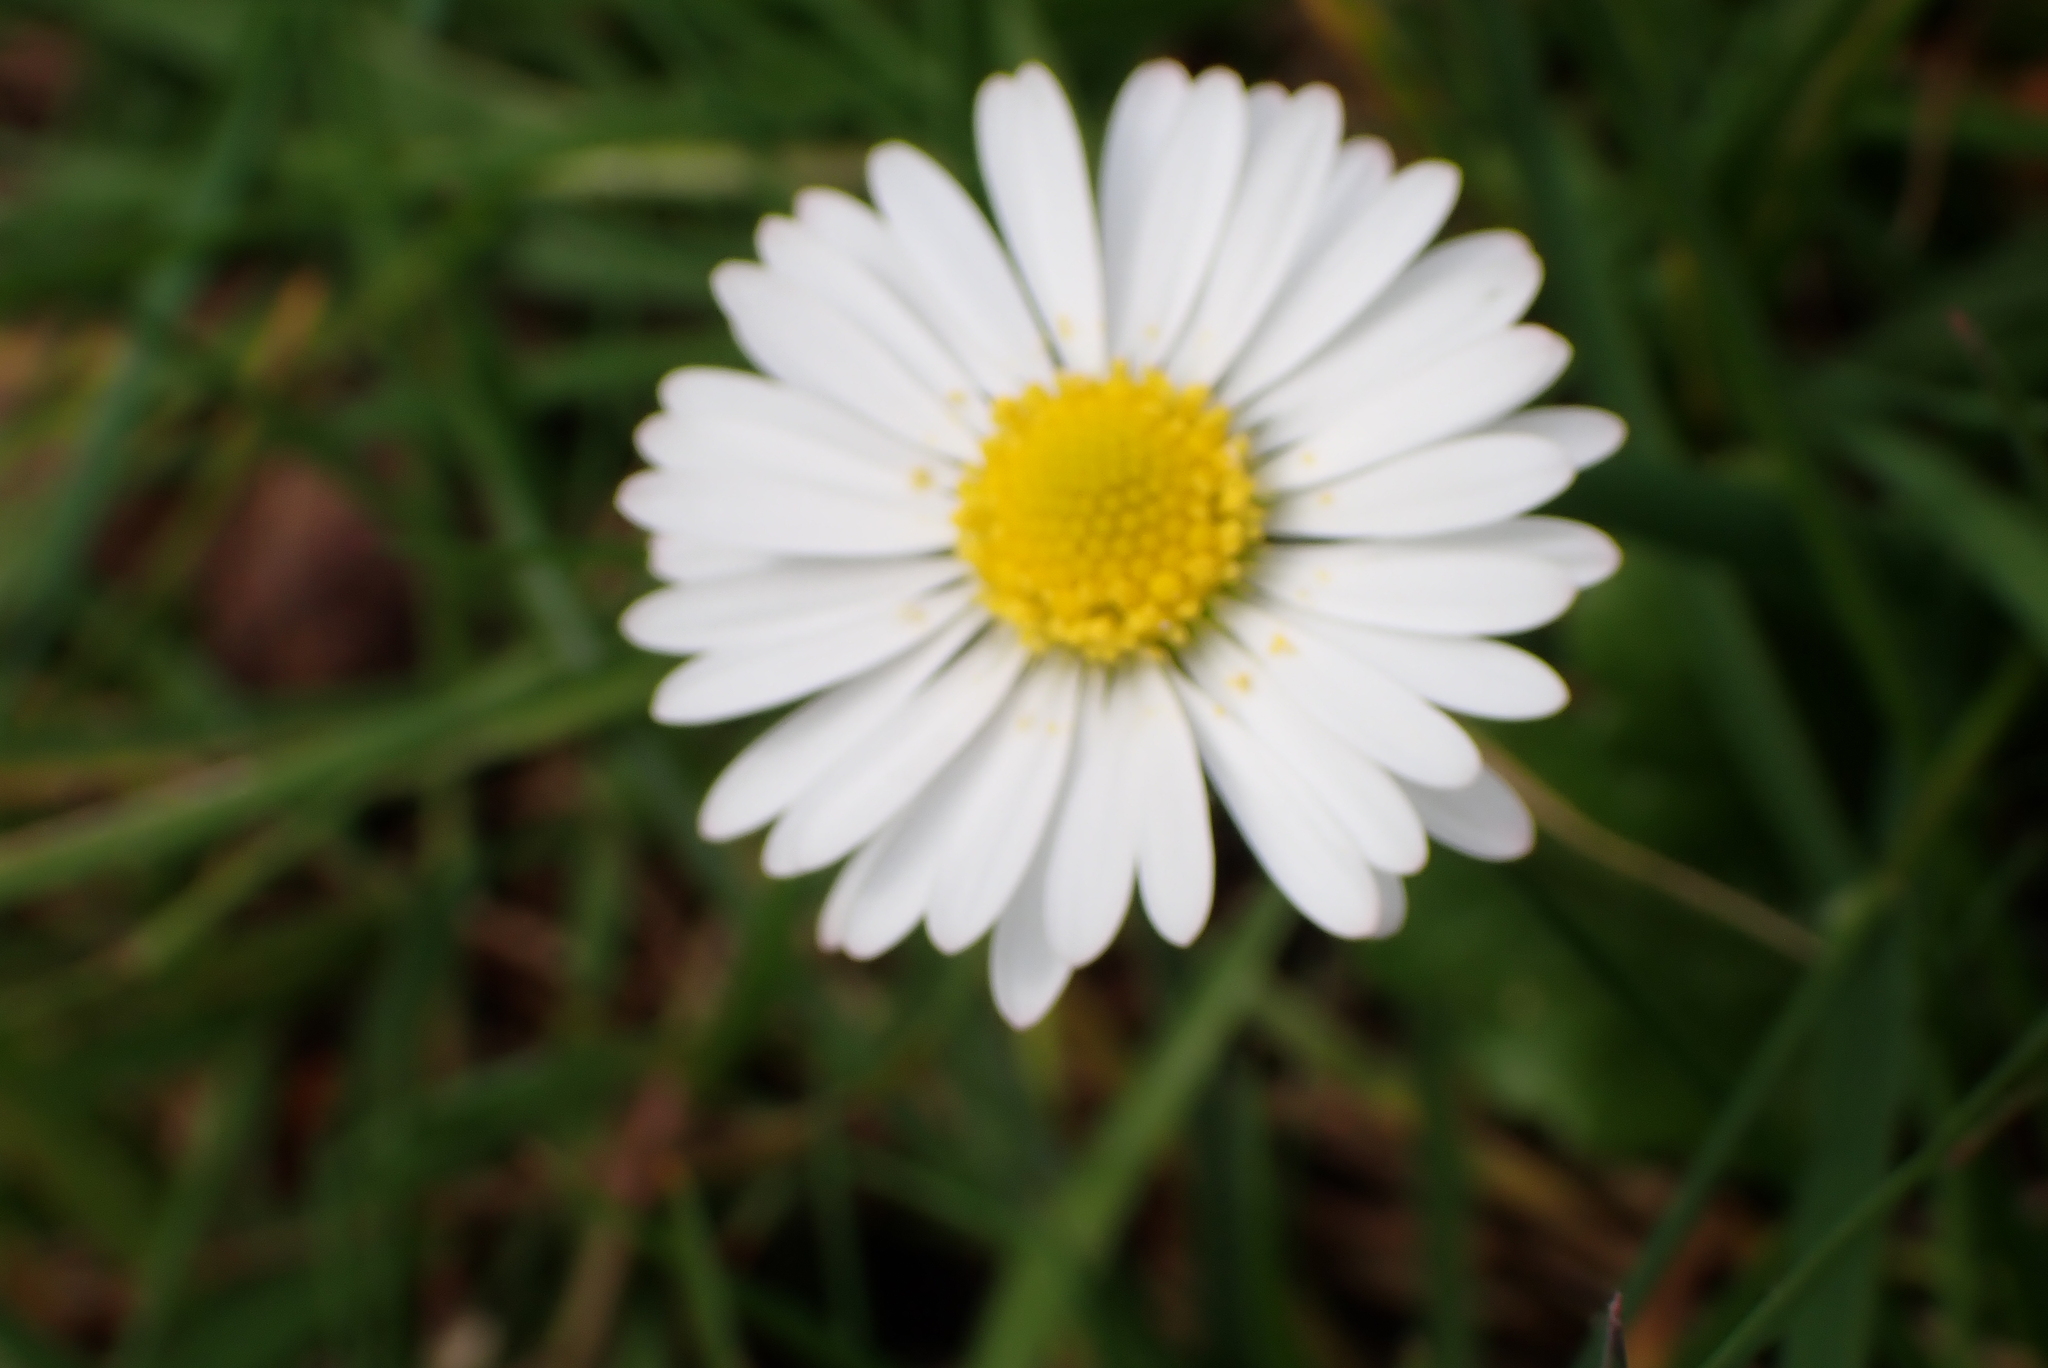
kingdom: Plantae
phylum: Tracheophyta
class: Magnoliopsida
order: Asterales
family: Asteraceae
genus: Bellis
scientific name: Bellis perennis
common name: Lawndaisy
